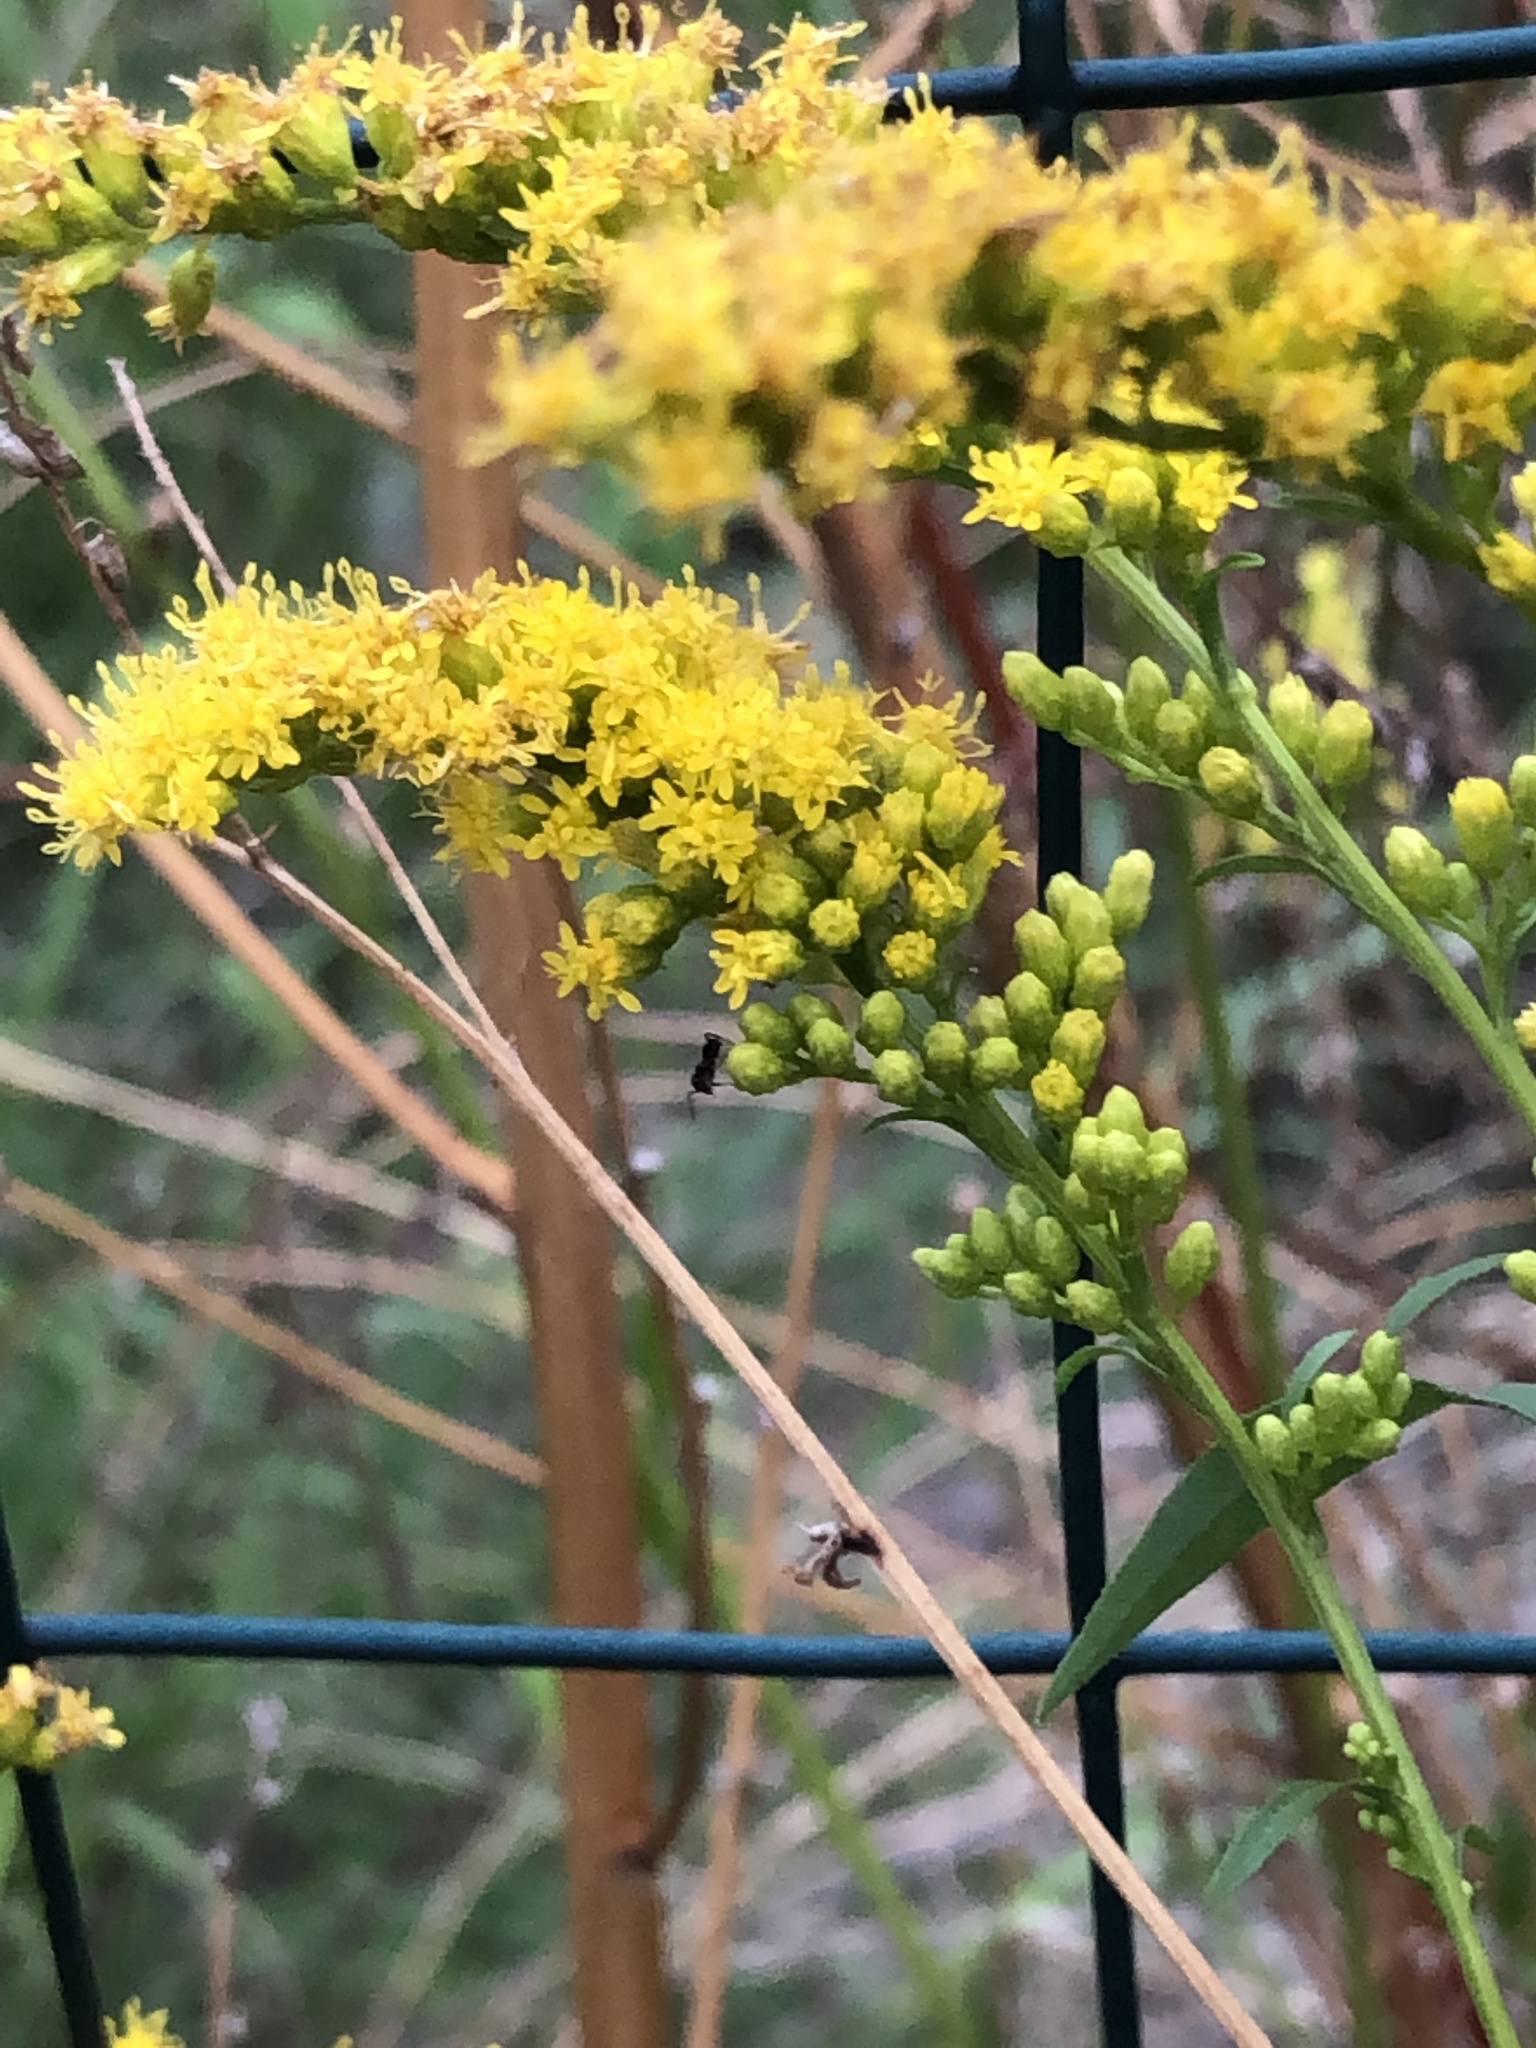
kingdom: Plantae
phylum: Tracheophyta
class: Magnoliopsida
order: Asterales
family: Asteraceae
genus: Solidago
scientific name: Solidago odora
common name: Anise-scented goldenrod
